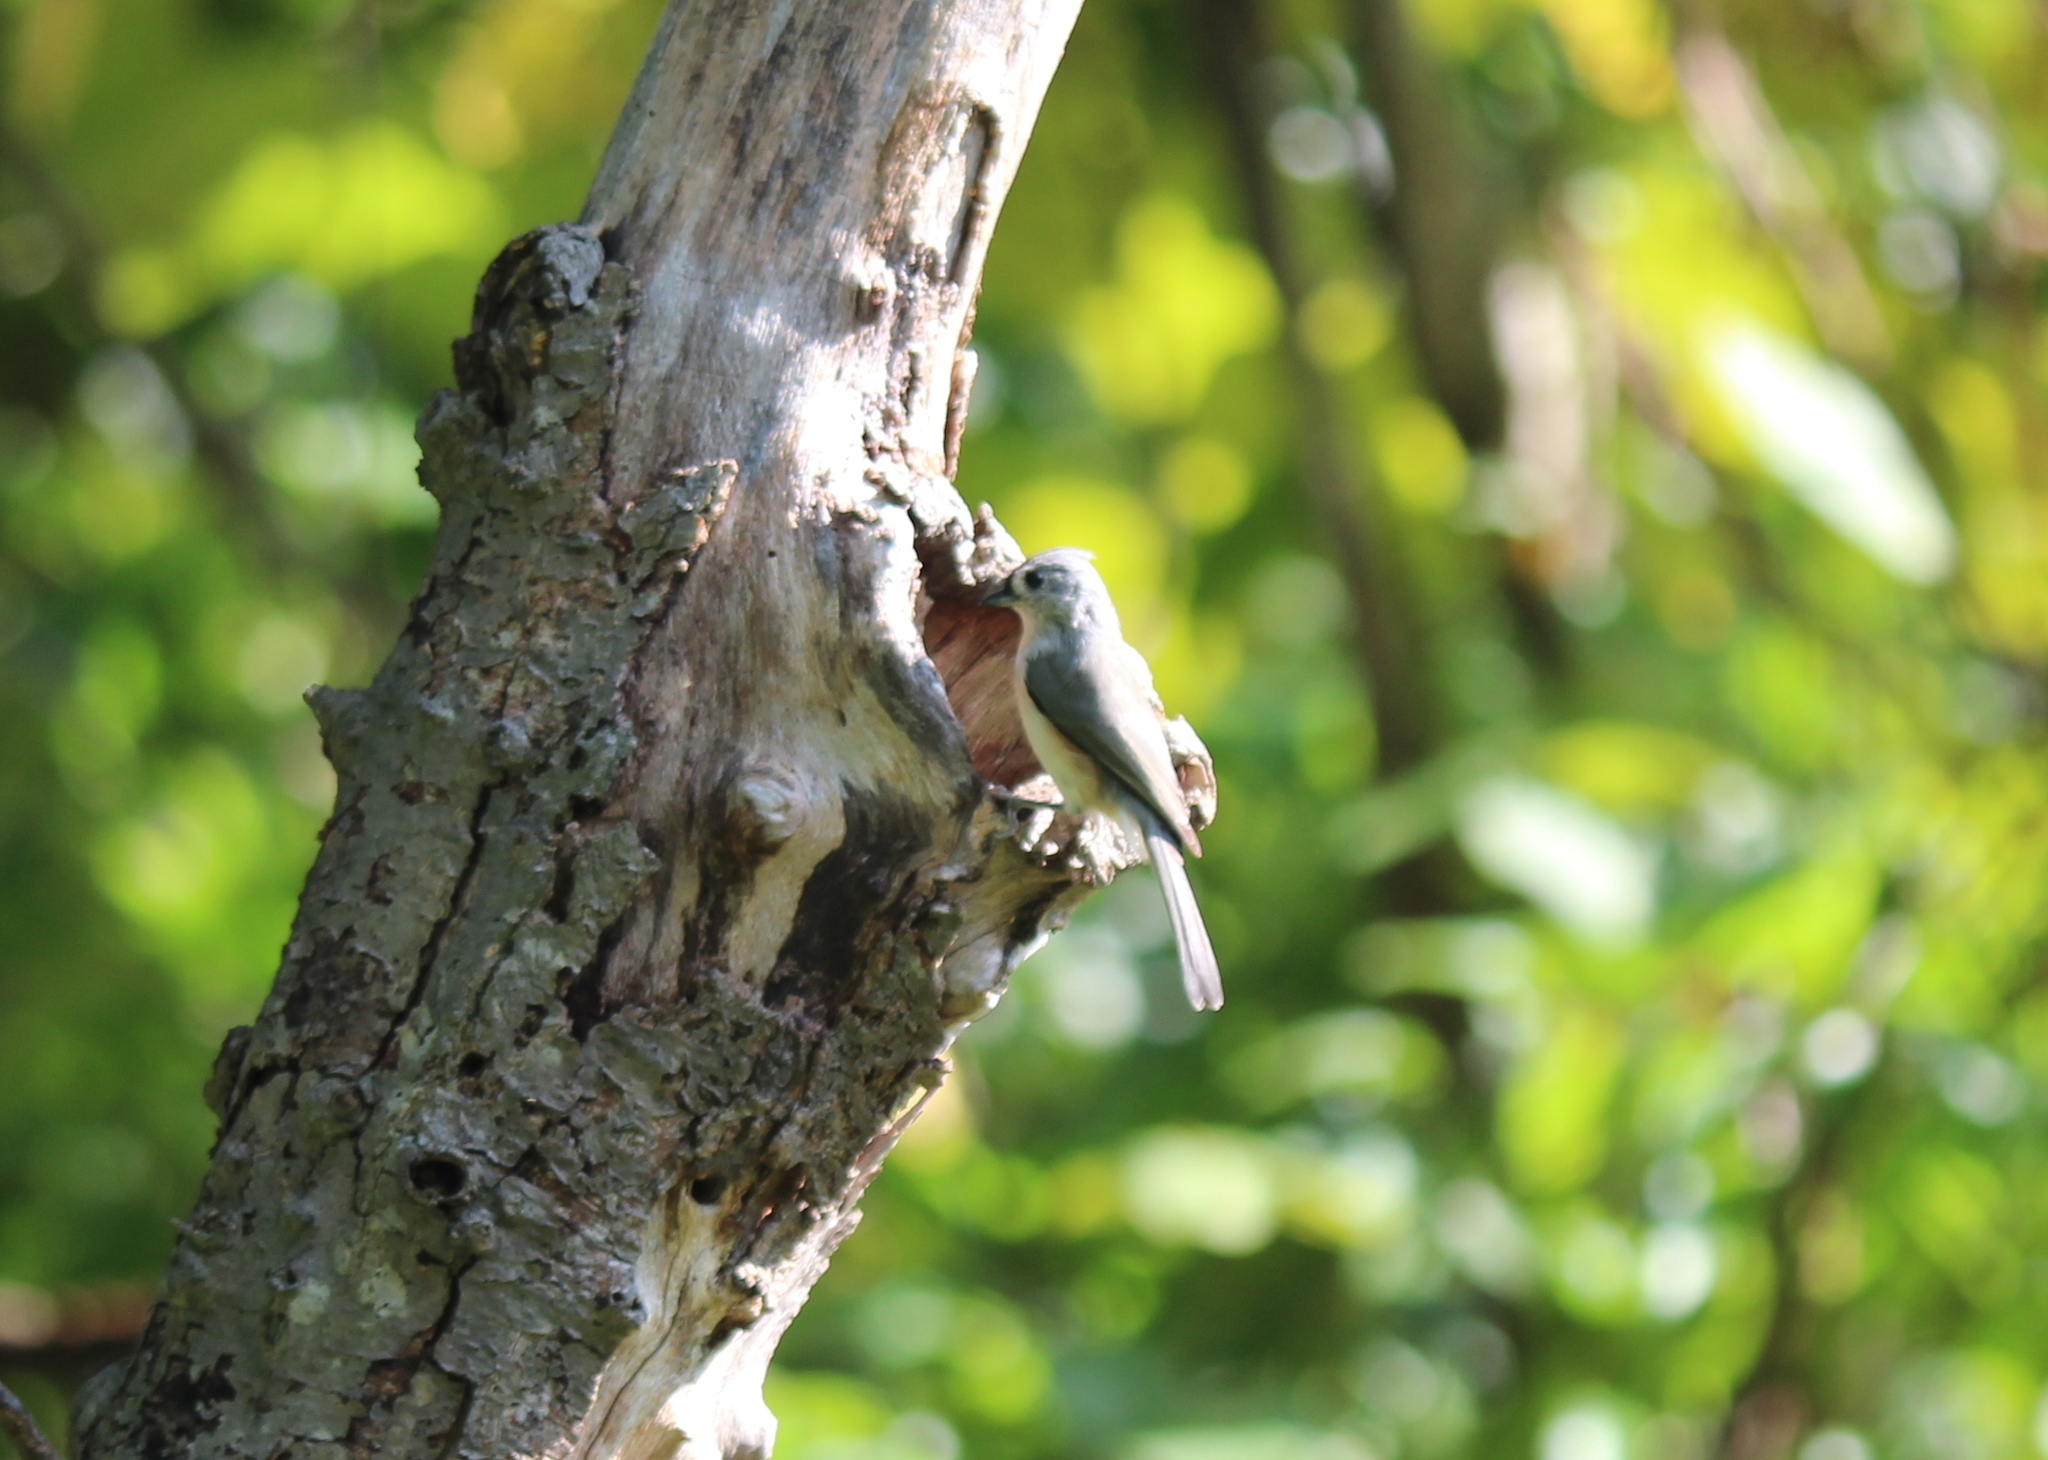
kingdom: Animalia
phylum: Chordata
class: Aves
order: Passeriformes
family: Paridae
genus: Baeolophus
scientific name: Baeolophus bicolor
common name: Tufted titmouse
